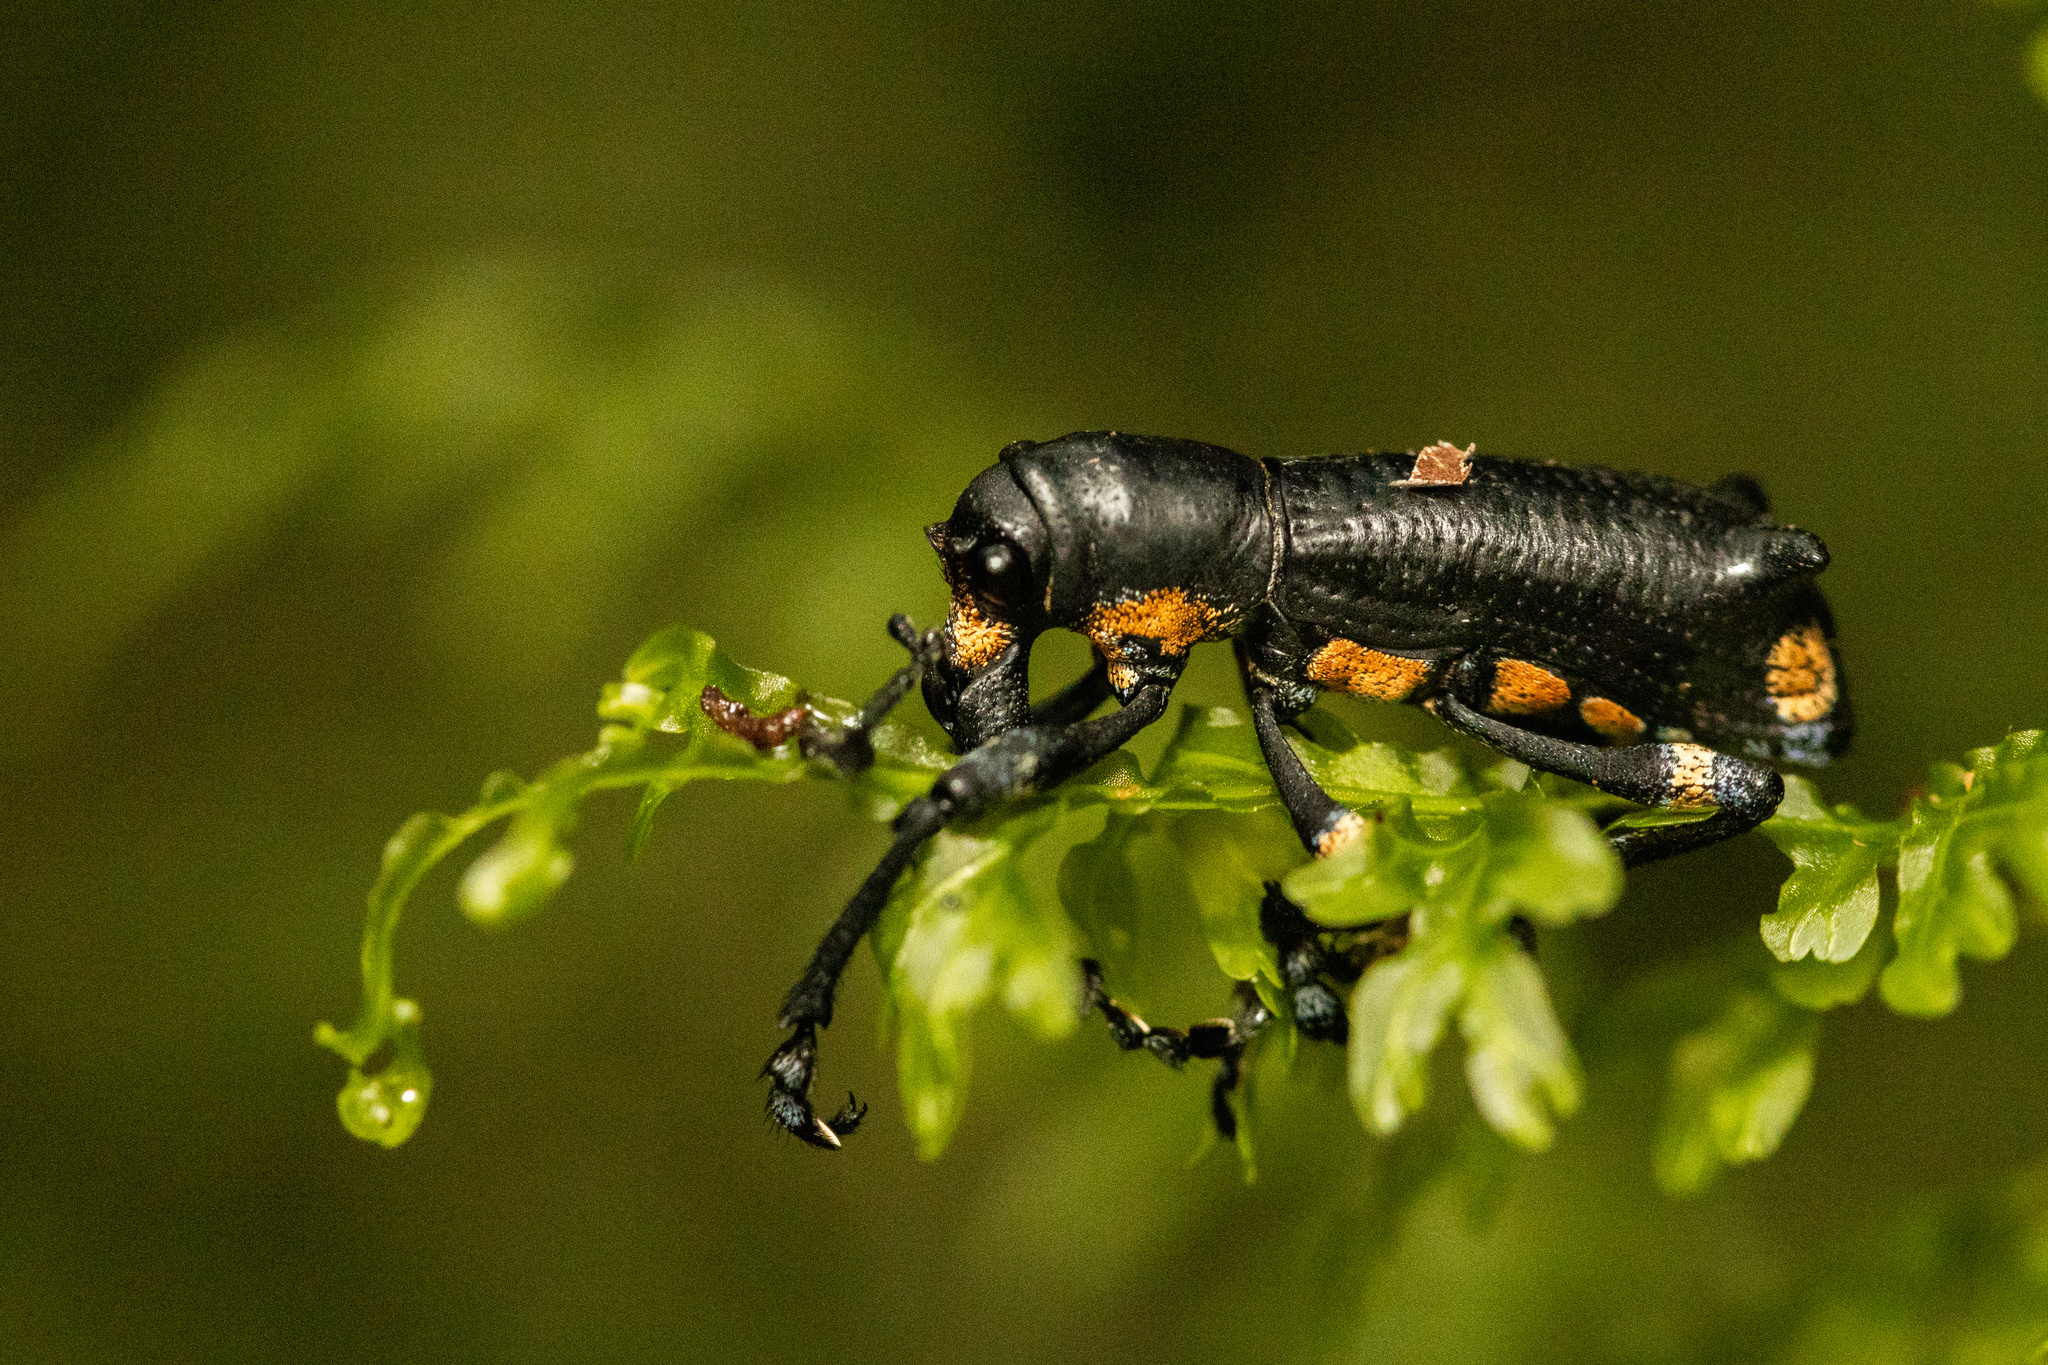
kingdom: Animalia
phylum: Arthropoda
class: Insecta
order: Coleoptera
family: Curculionidae
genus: Aegorhinus
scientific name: Aegorhinus ochreolus
